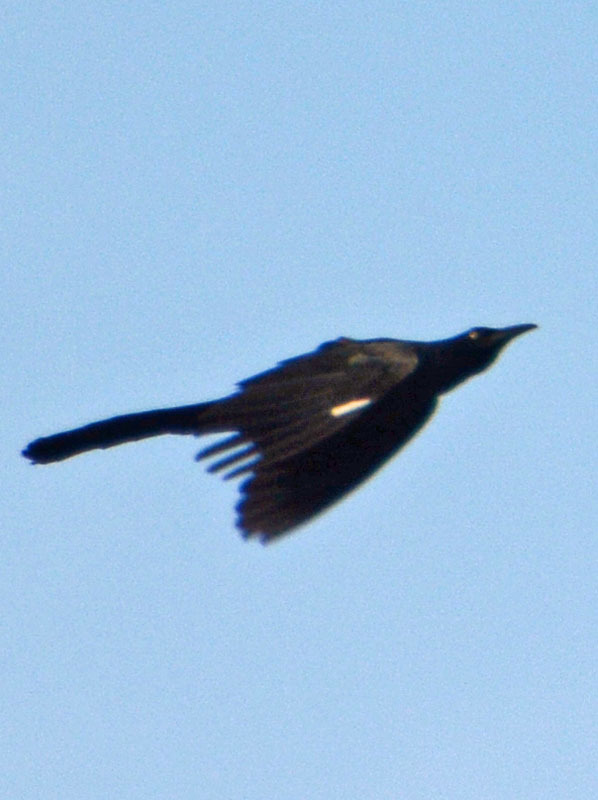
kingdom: Animalia
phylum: Chordata
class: Aves
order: Passeriformes
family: Icteridae
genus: Quiscalus
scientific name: Quiscalus mexicanus
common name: Great-tailed grackle
